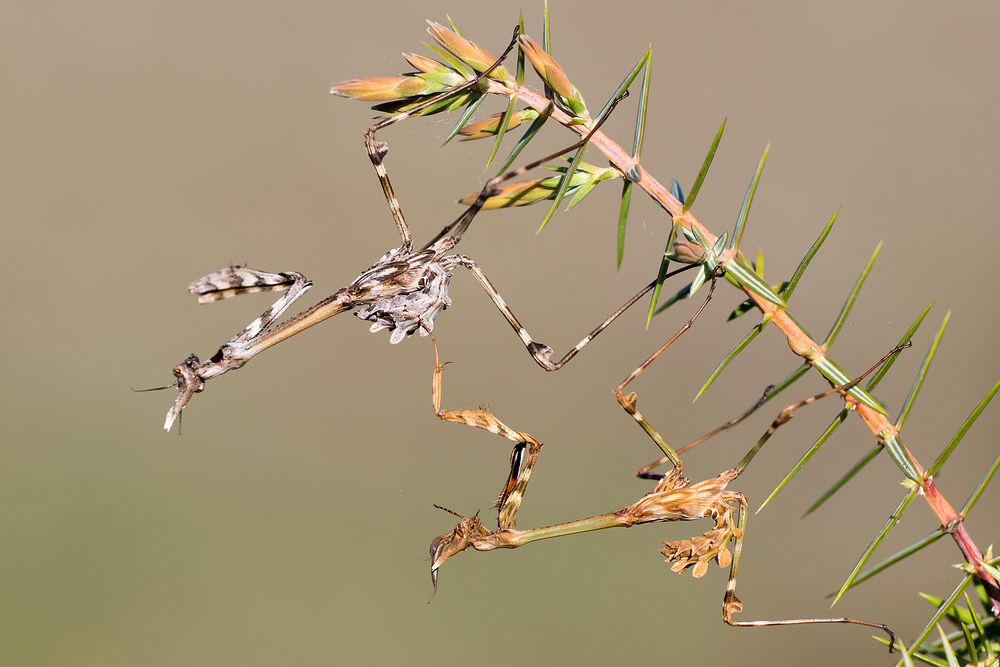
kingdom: Animalia
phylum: Arthropoda
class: Insecta
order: Mantodea
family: Empusidae
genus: Empusa
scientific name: Empusa pennata
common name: Conehead mantis
